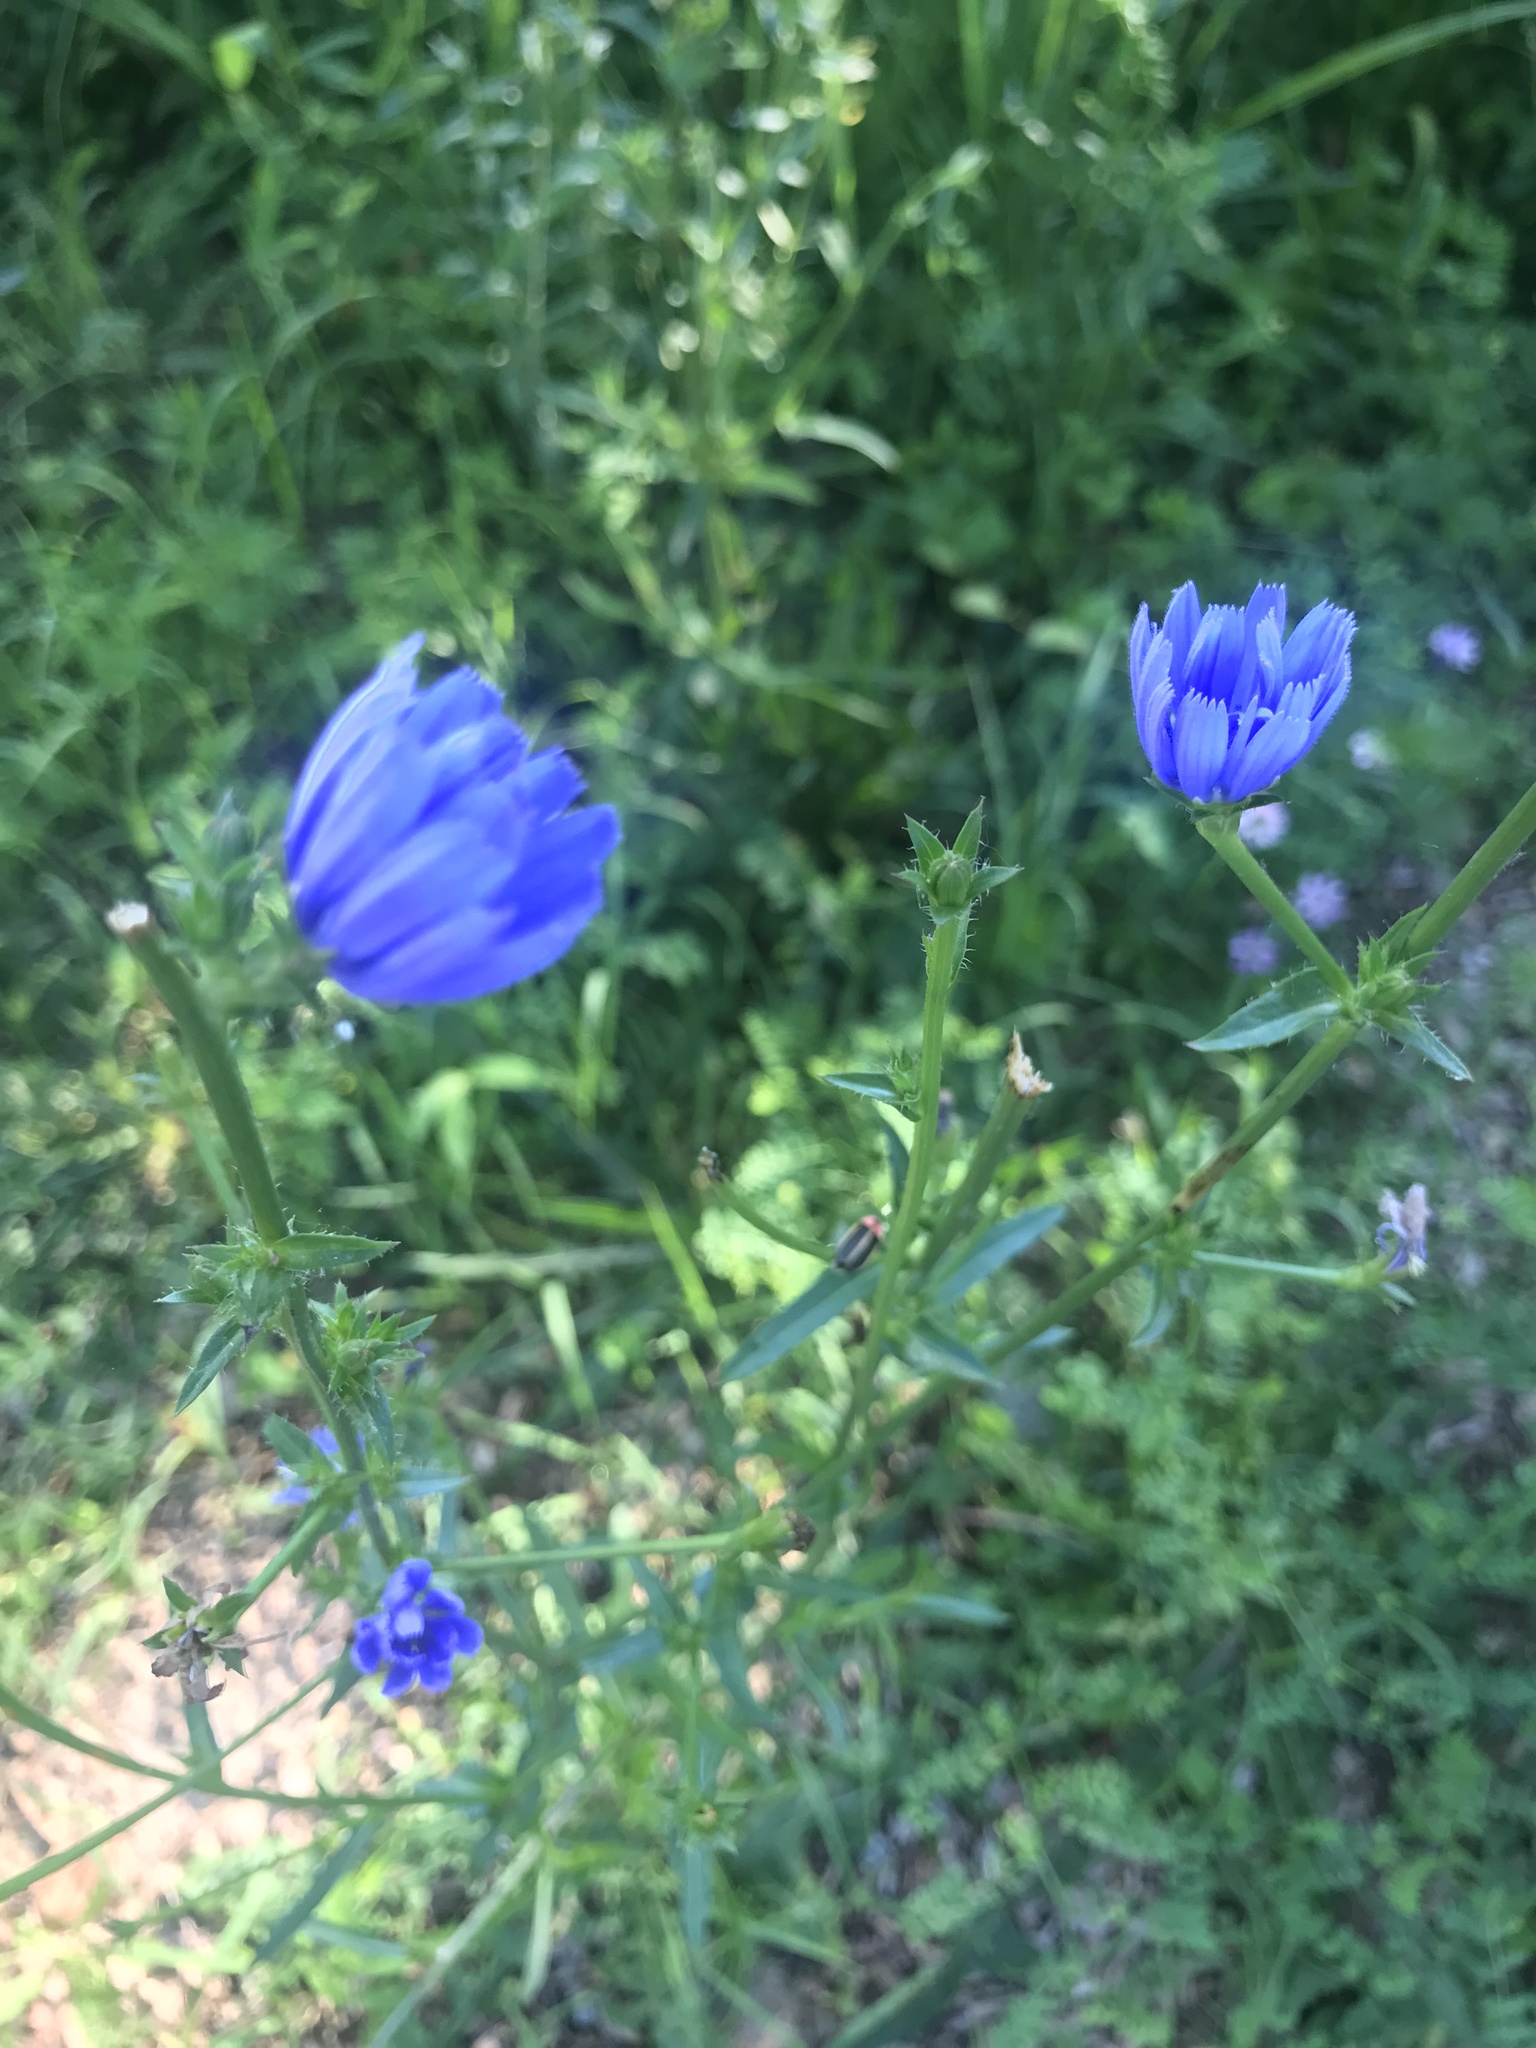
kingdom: Plantae
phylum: Tracheophyta
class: Magnoliopsida
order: Asterales
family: Asteraceae
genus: Cichorium
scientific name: Cichorium intybus
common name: Chicory
